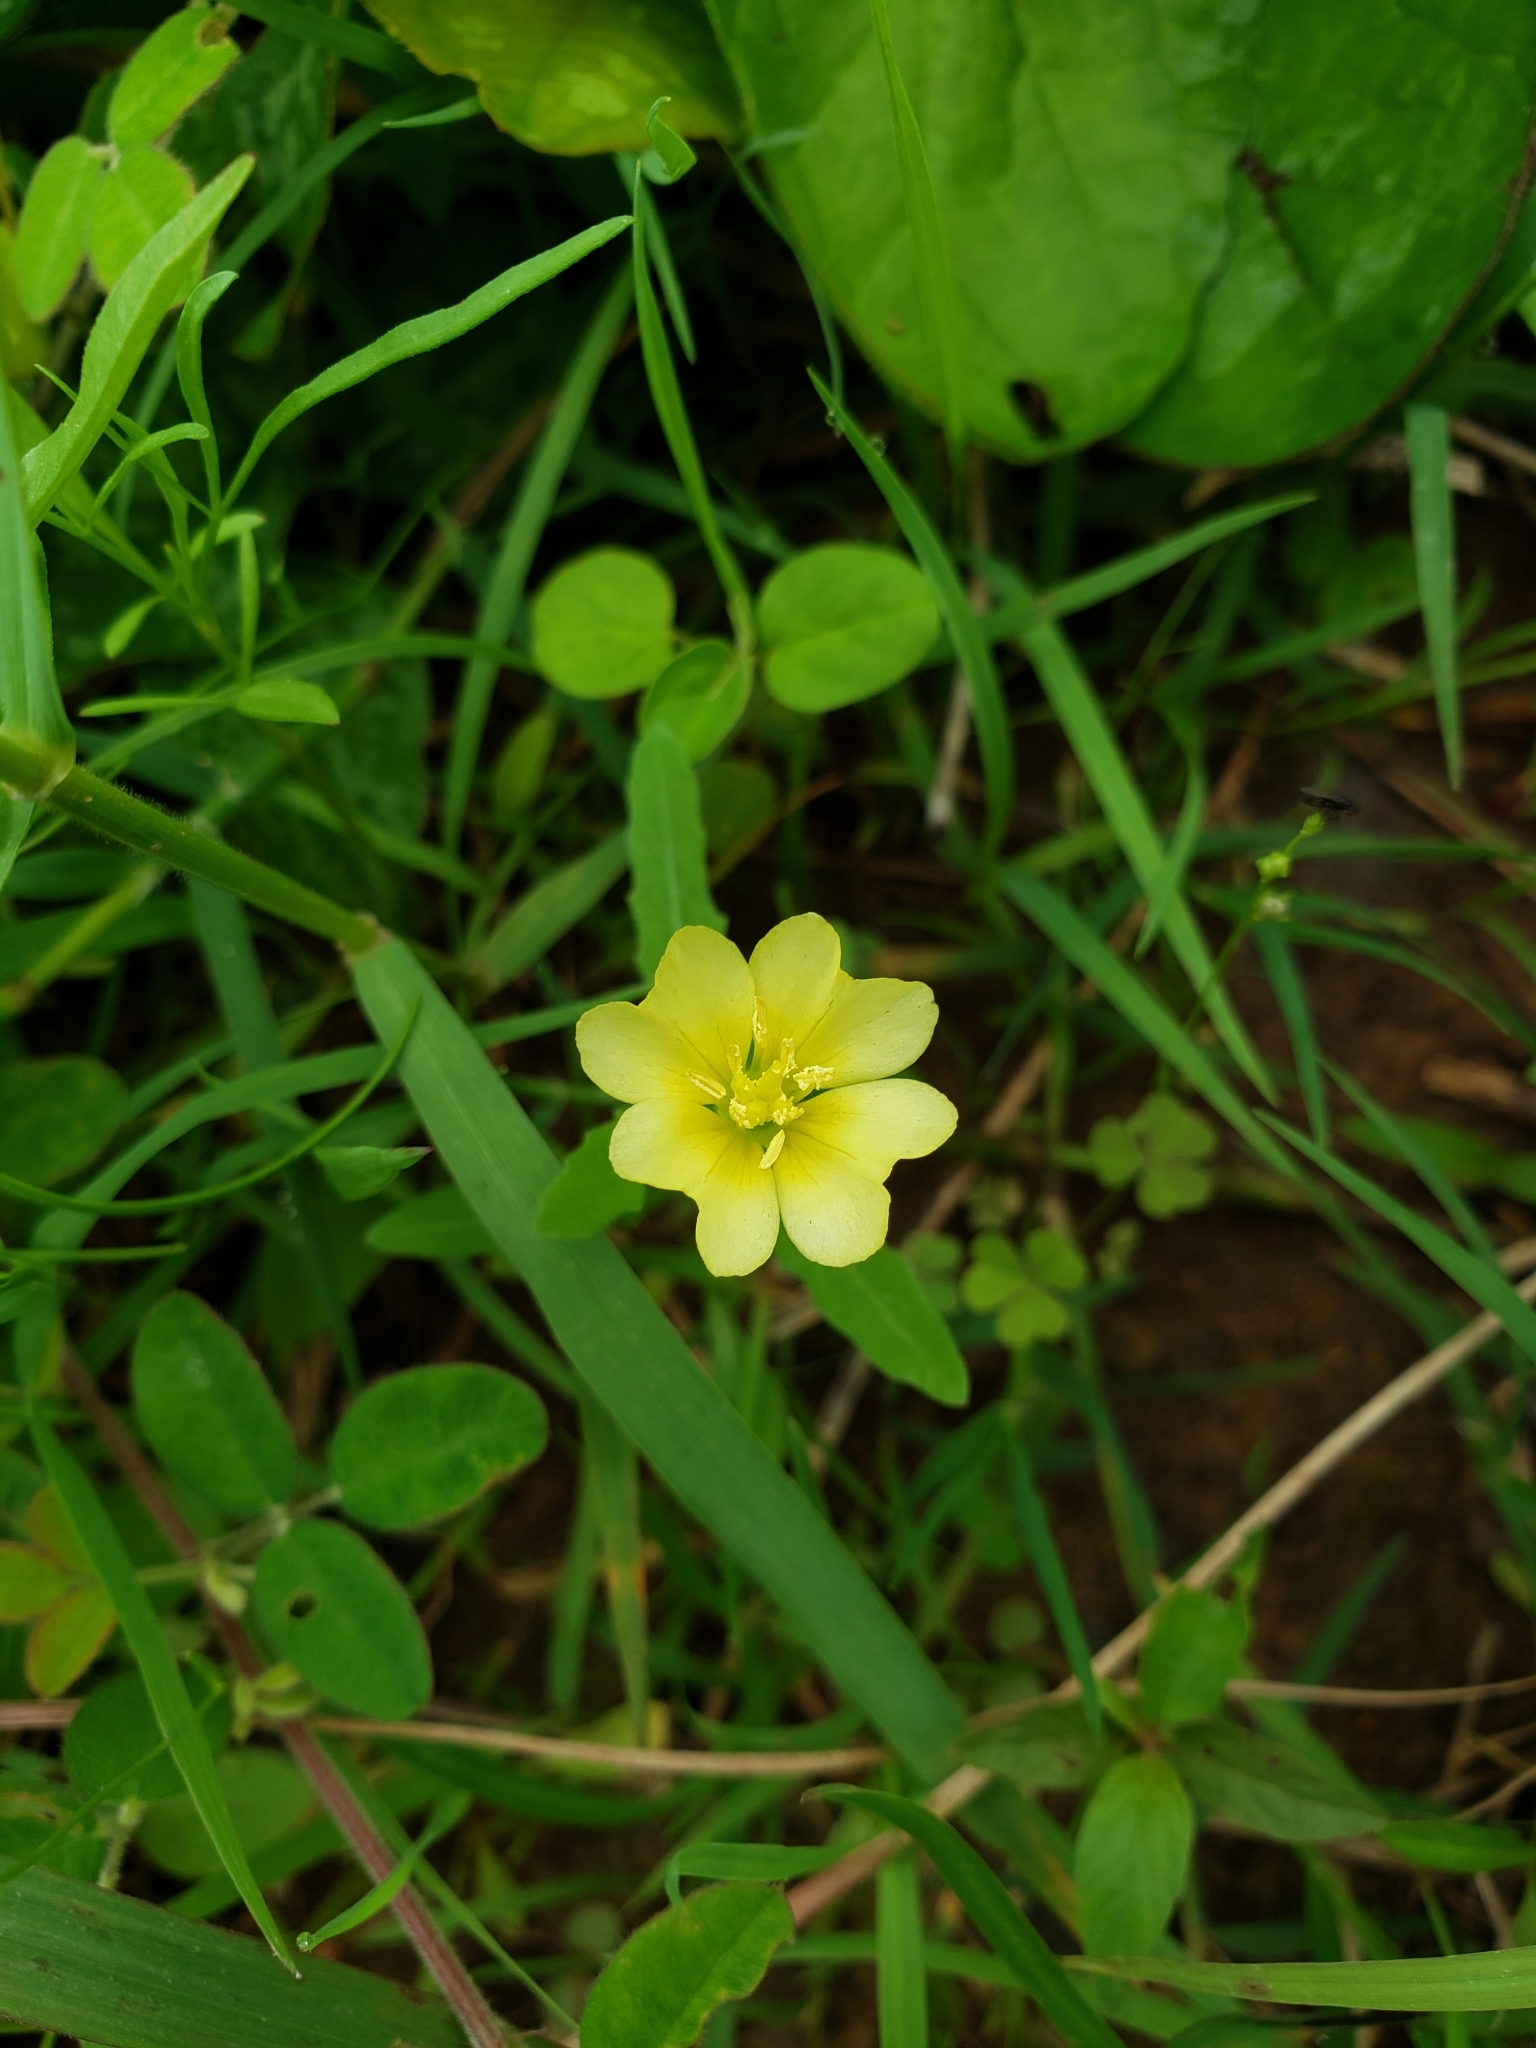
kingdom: Plantae
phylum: Tracheophyta
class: Magnoliopsida
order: Myrtales
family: Onagraceae
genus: Oenothera
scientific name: Oenothera laciniata
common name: Cut-leaved evening-primrose
